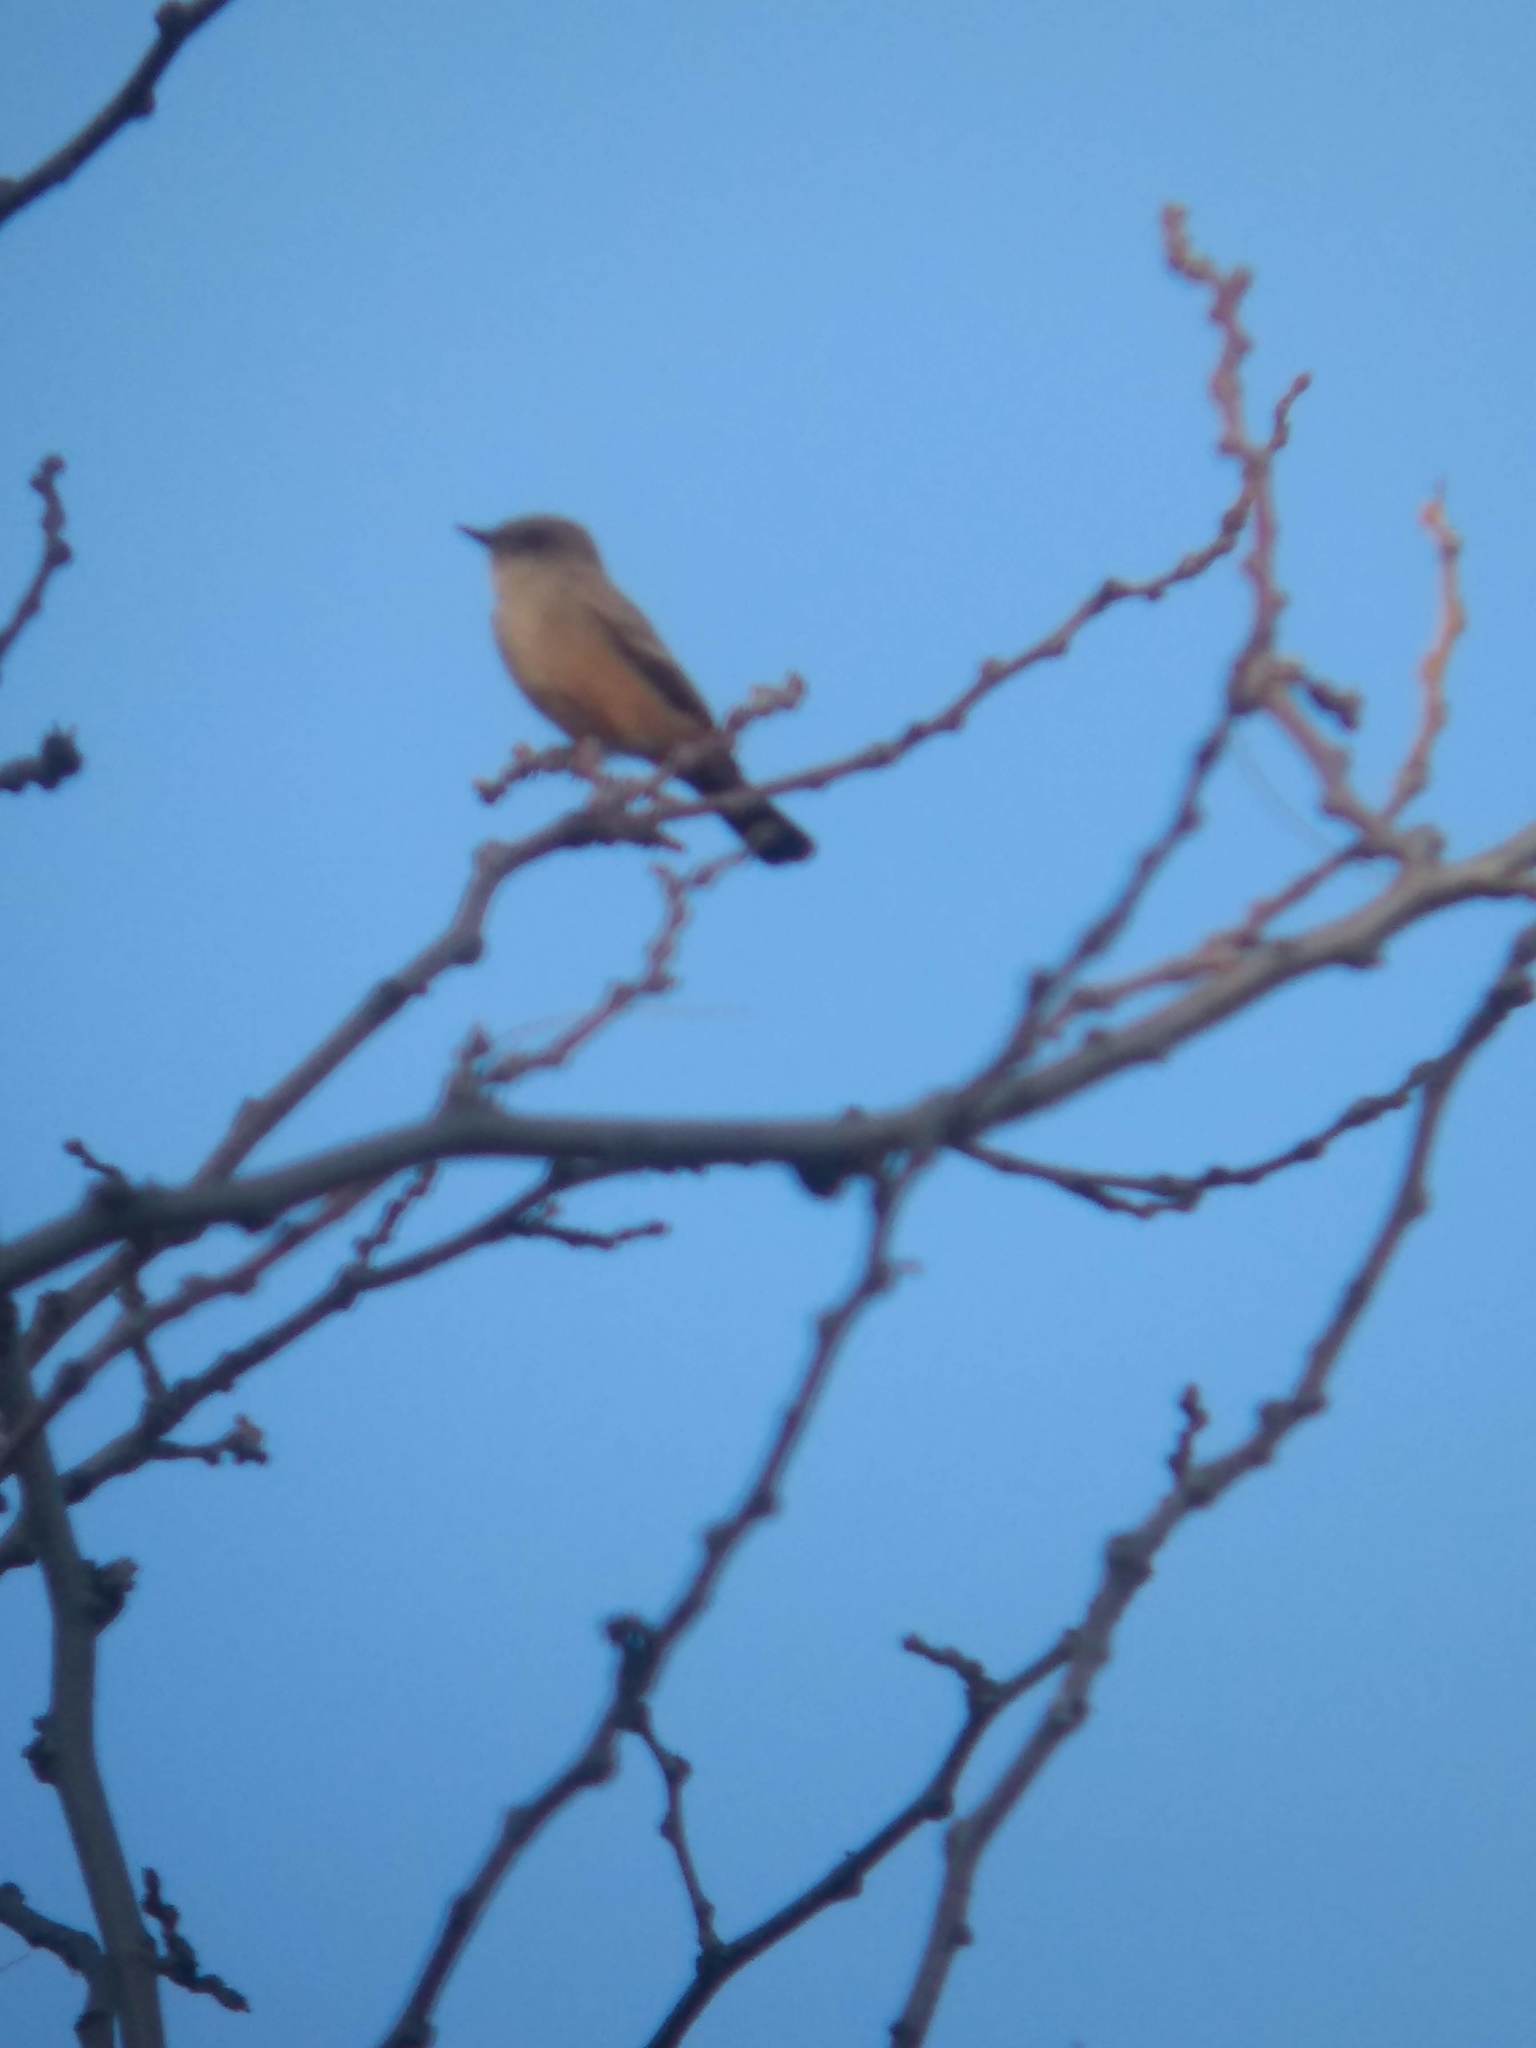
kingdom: Animalia
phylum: Chordata
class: Aves
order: Passeriformes
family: Tyrannidae
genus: Sayornis
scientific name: Sayornis saya
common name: Say's phoebe
